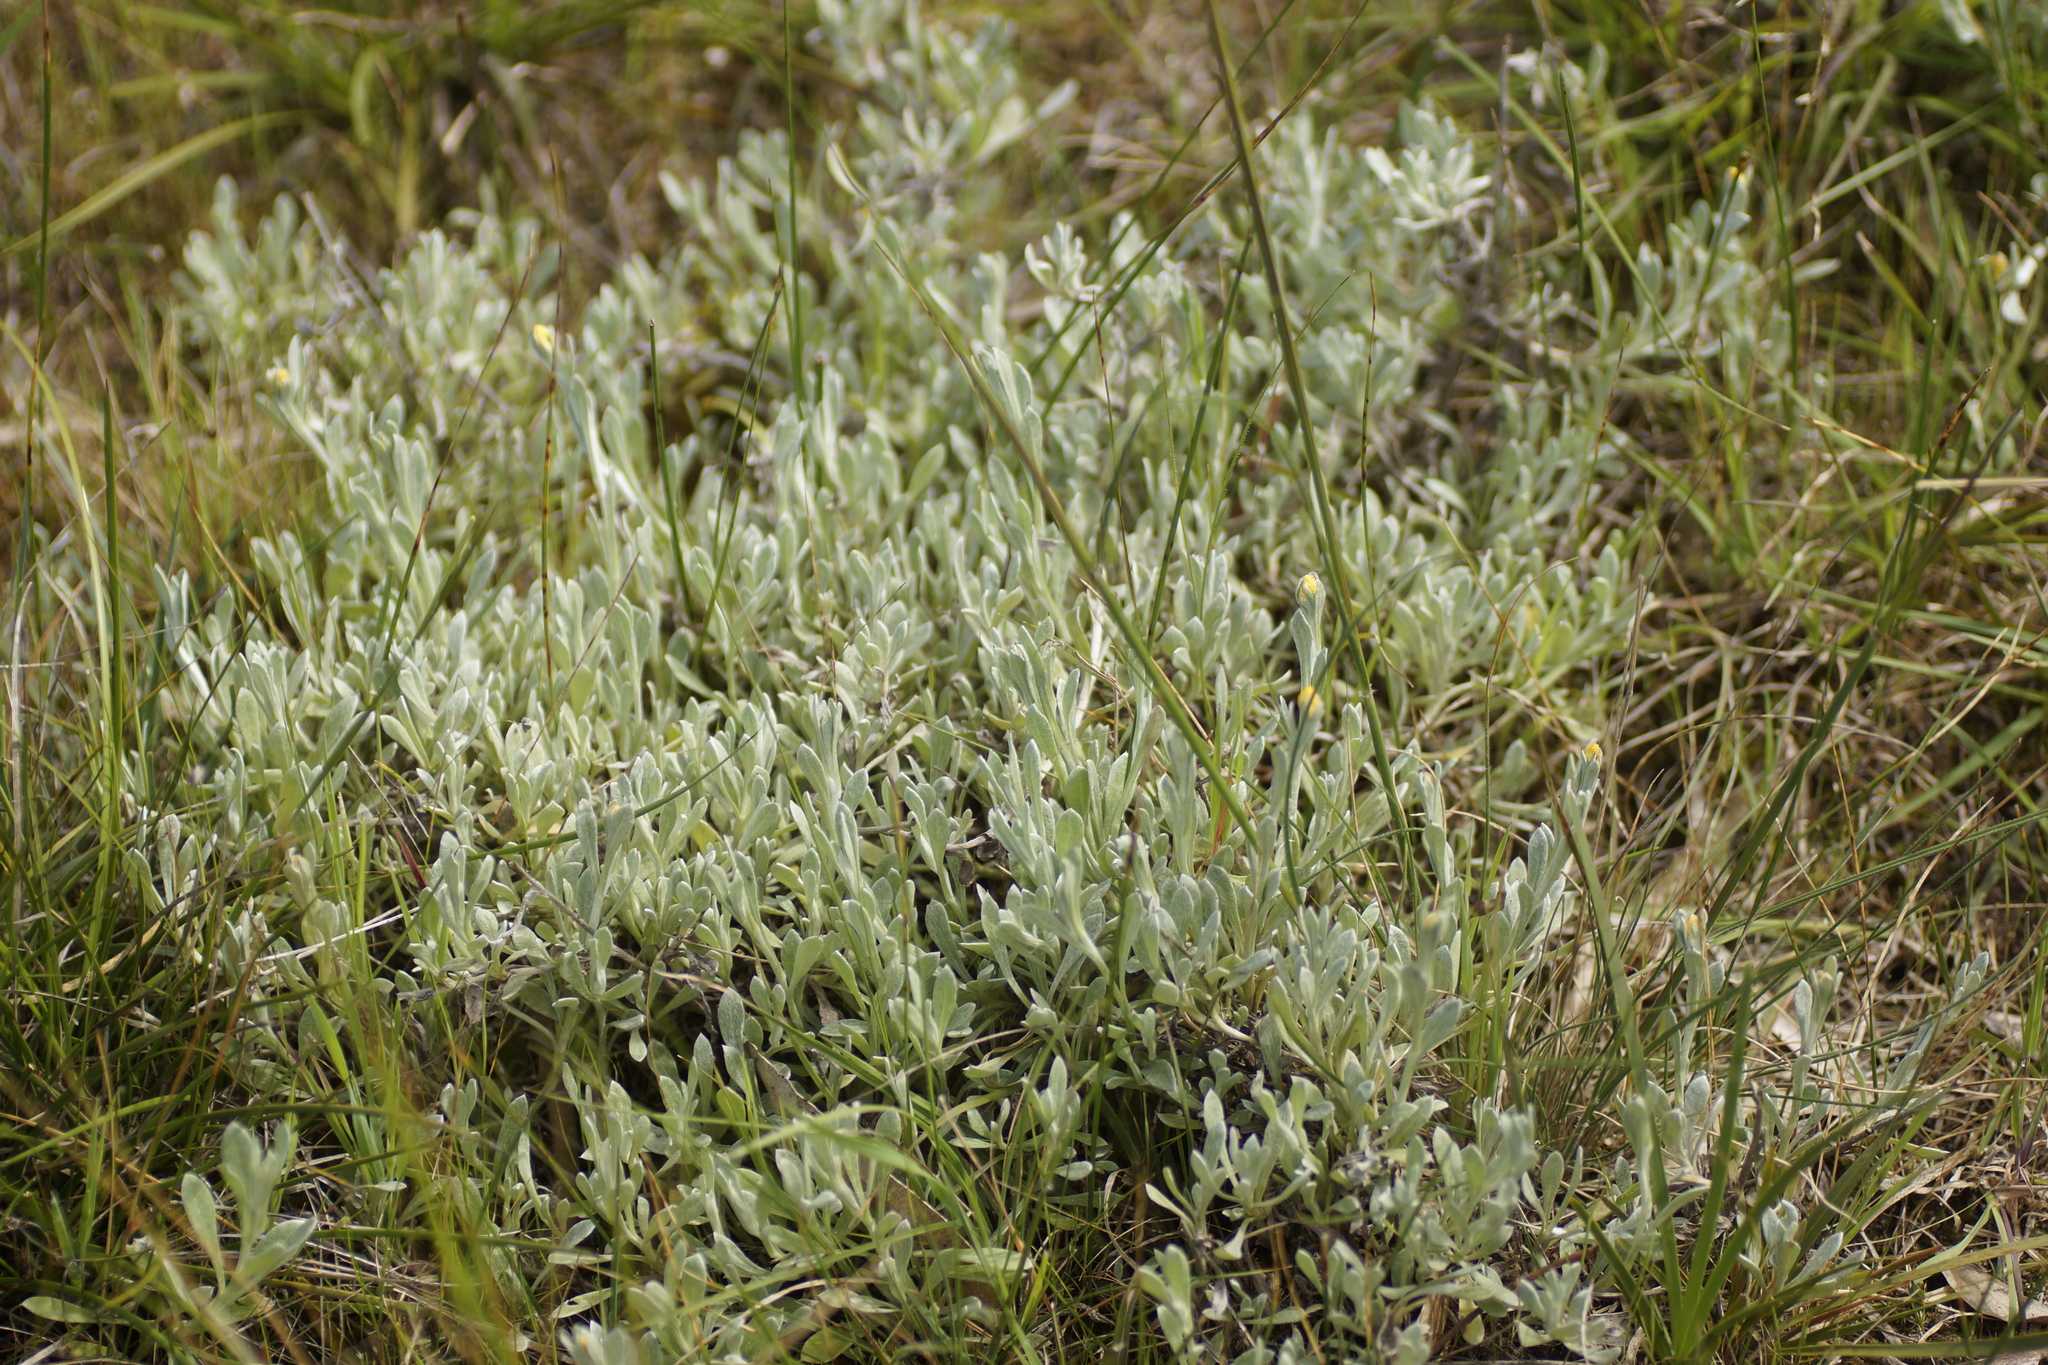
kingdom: Plantae
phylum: Tracheophyta
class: Magnoliopsida
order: Asterales
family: Asteraceae
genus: Chrysocephalum
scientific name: Chrysocephalum apiculatum
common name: Common everlasting
